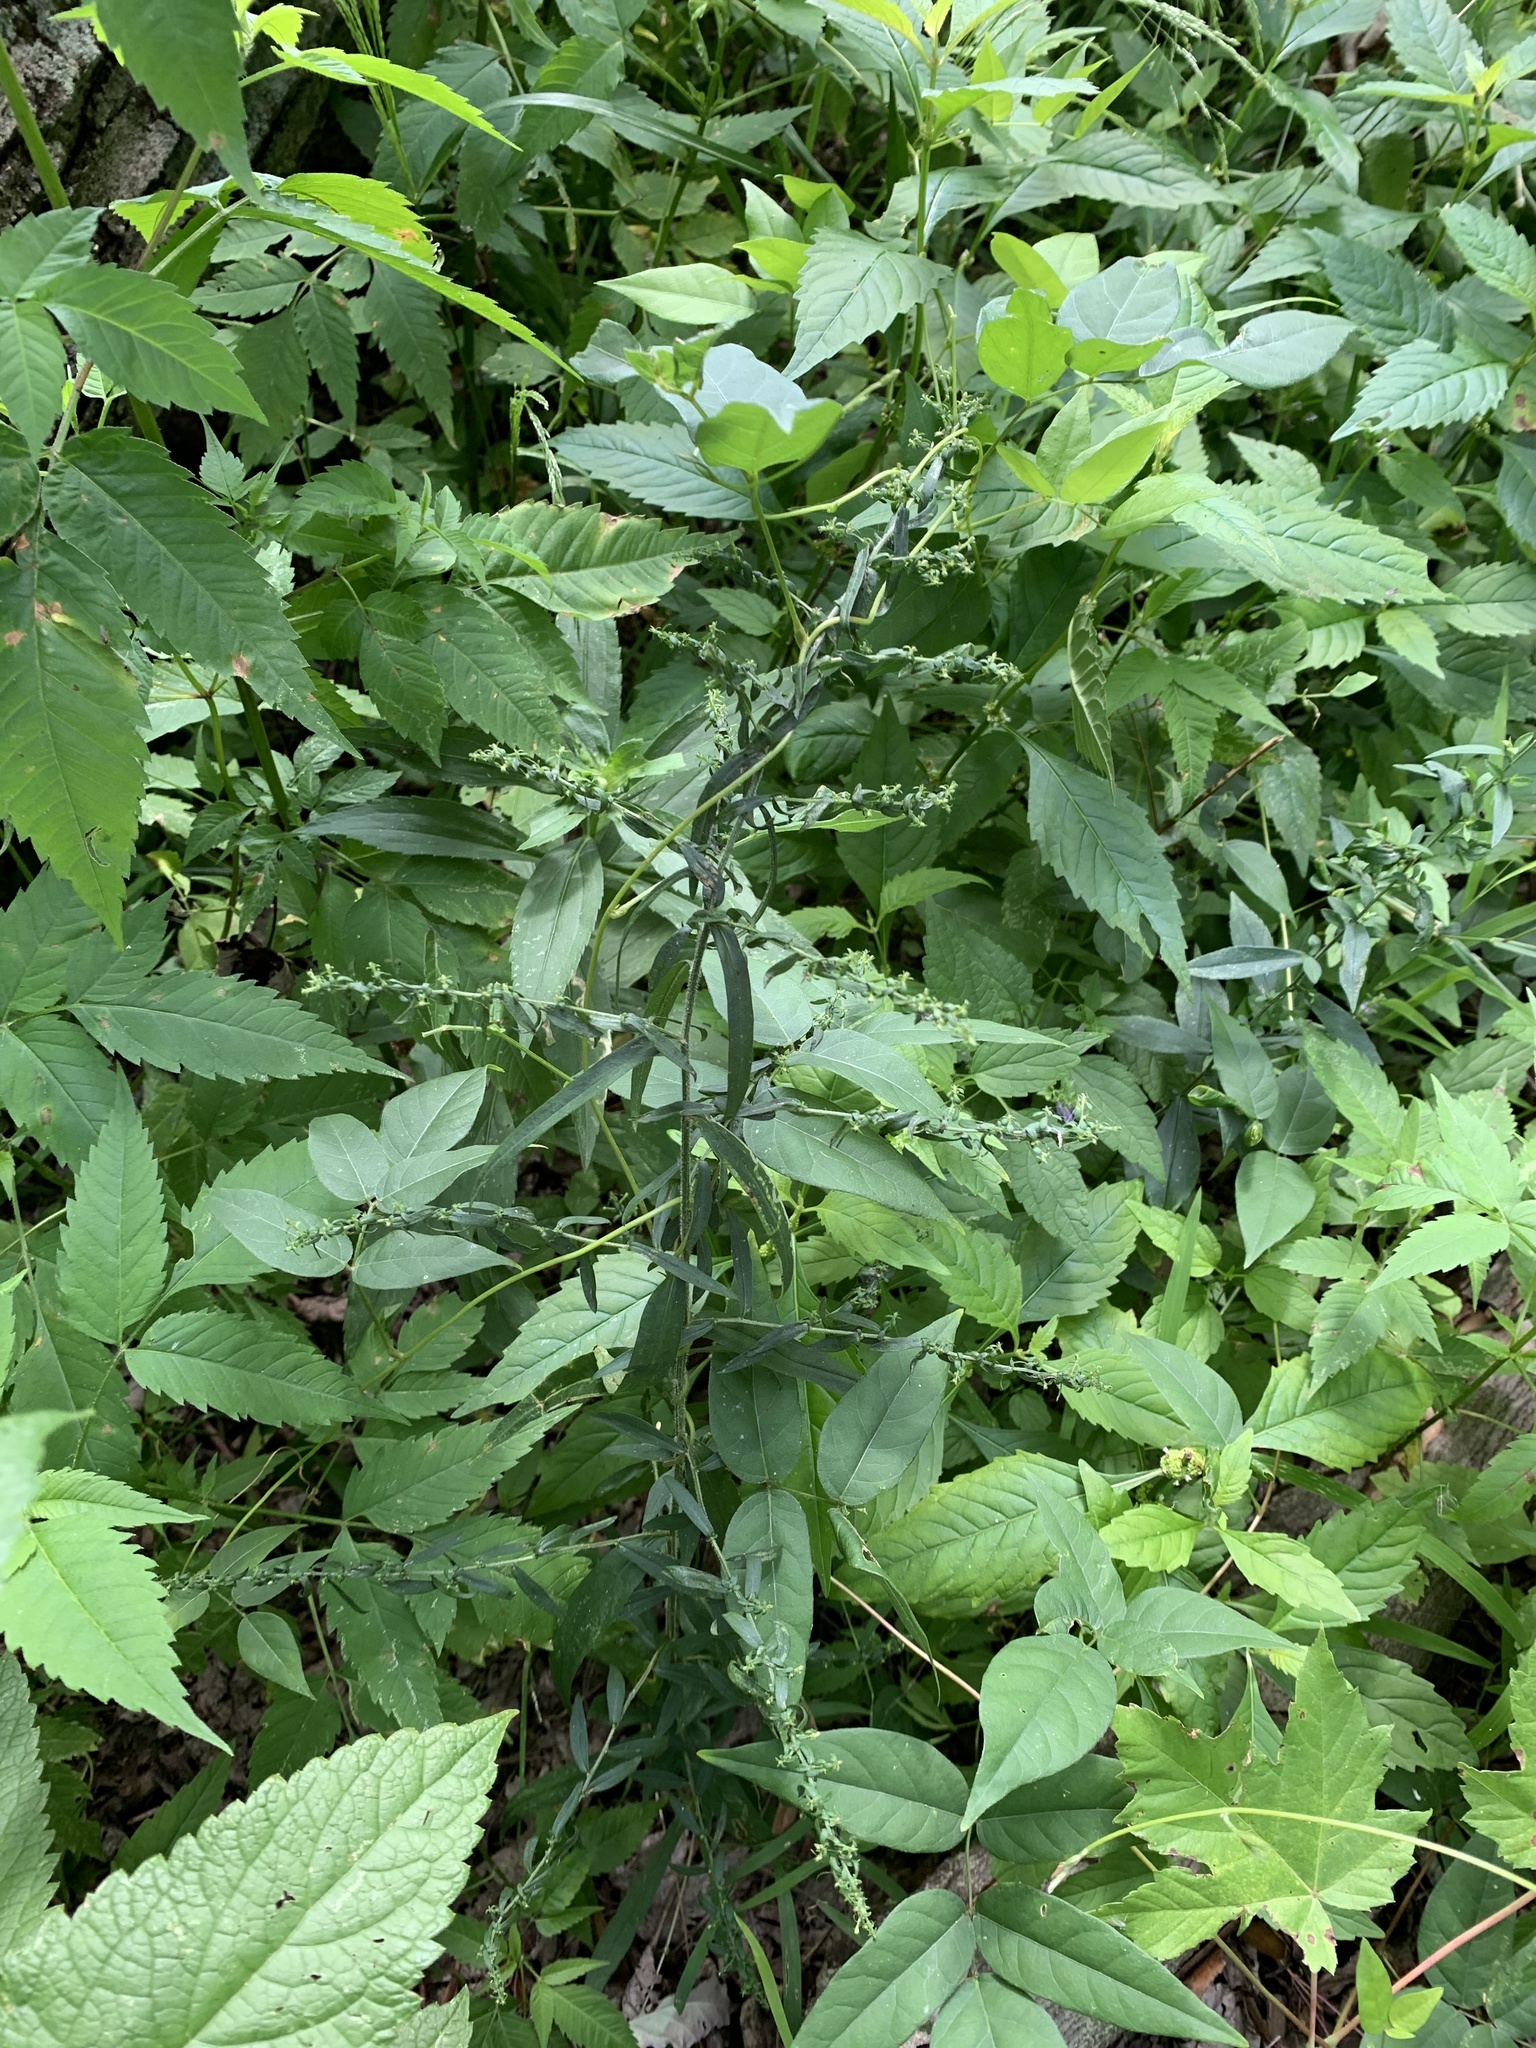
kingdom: Plantae
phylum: Tracheophyta
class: Magnoliopsida
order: Asterales
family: Asteraceae
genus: Symphyotrichum
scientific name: Symphyotrichum lateriflorum
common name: Calico aster
